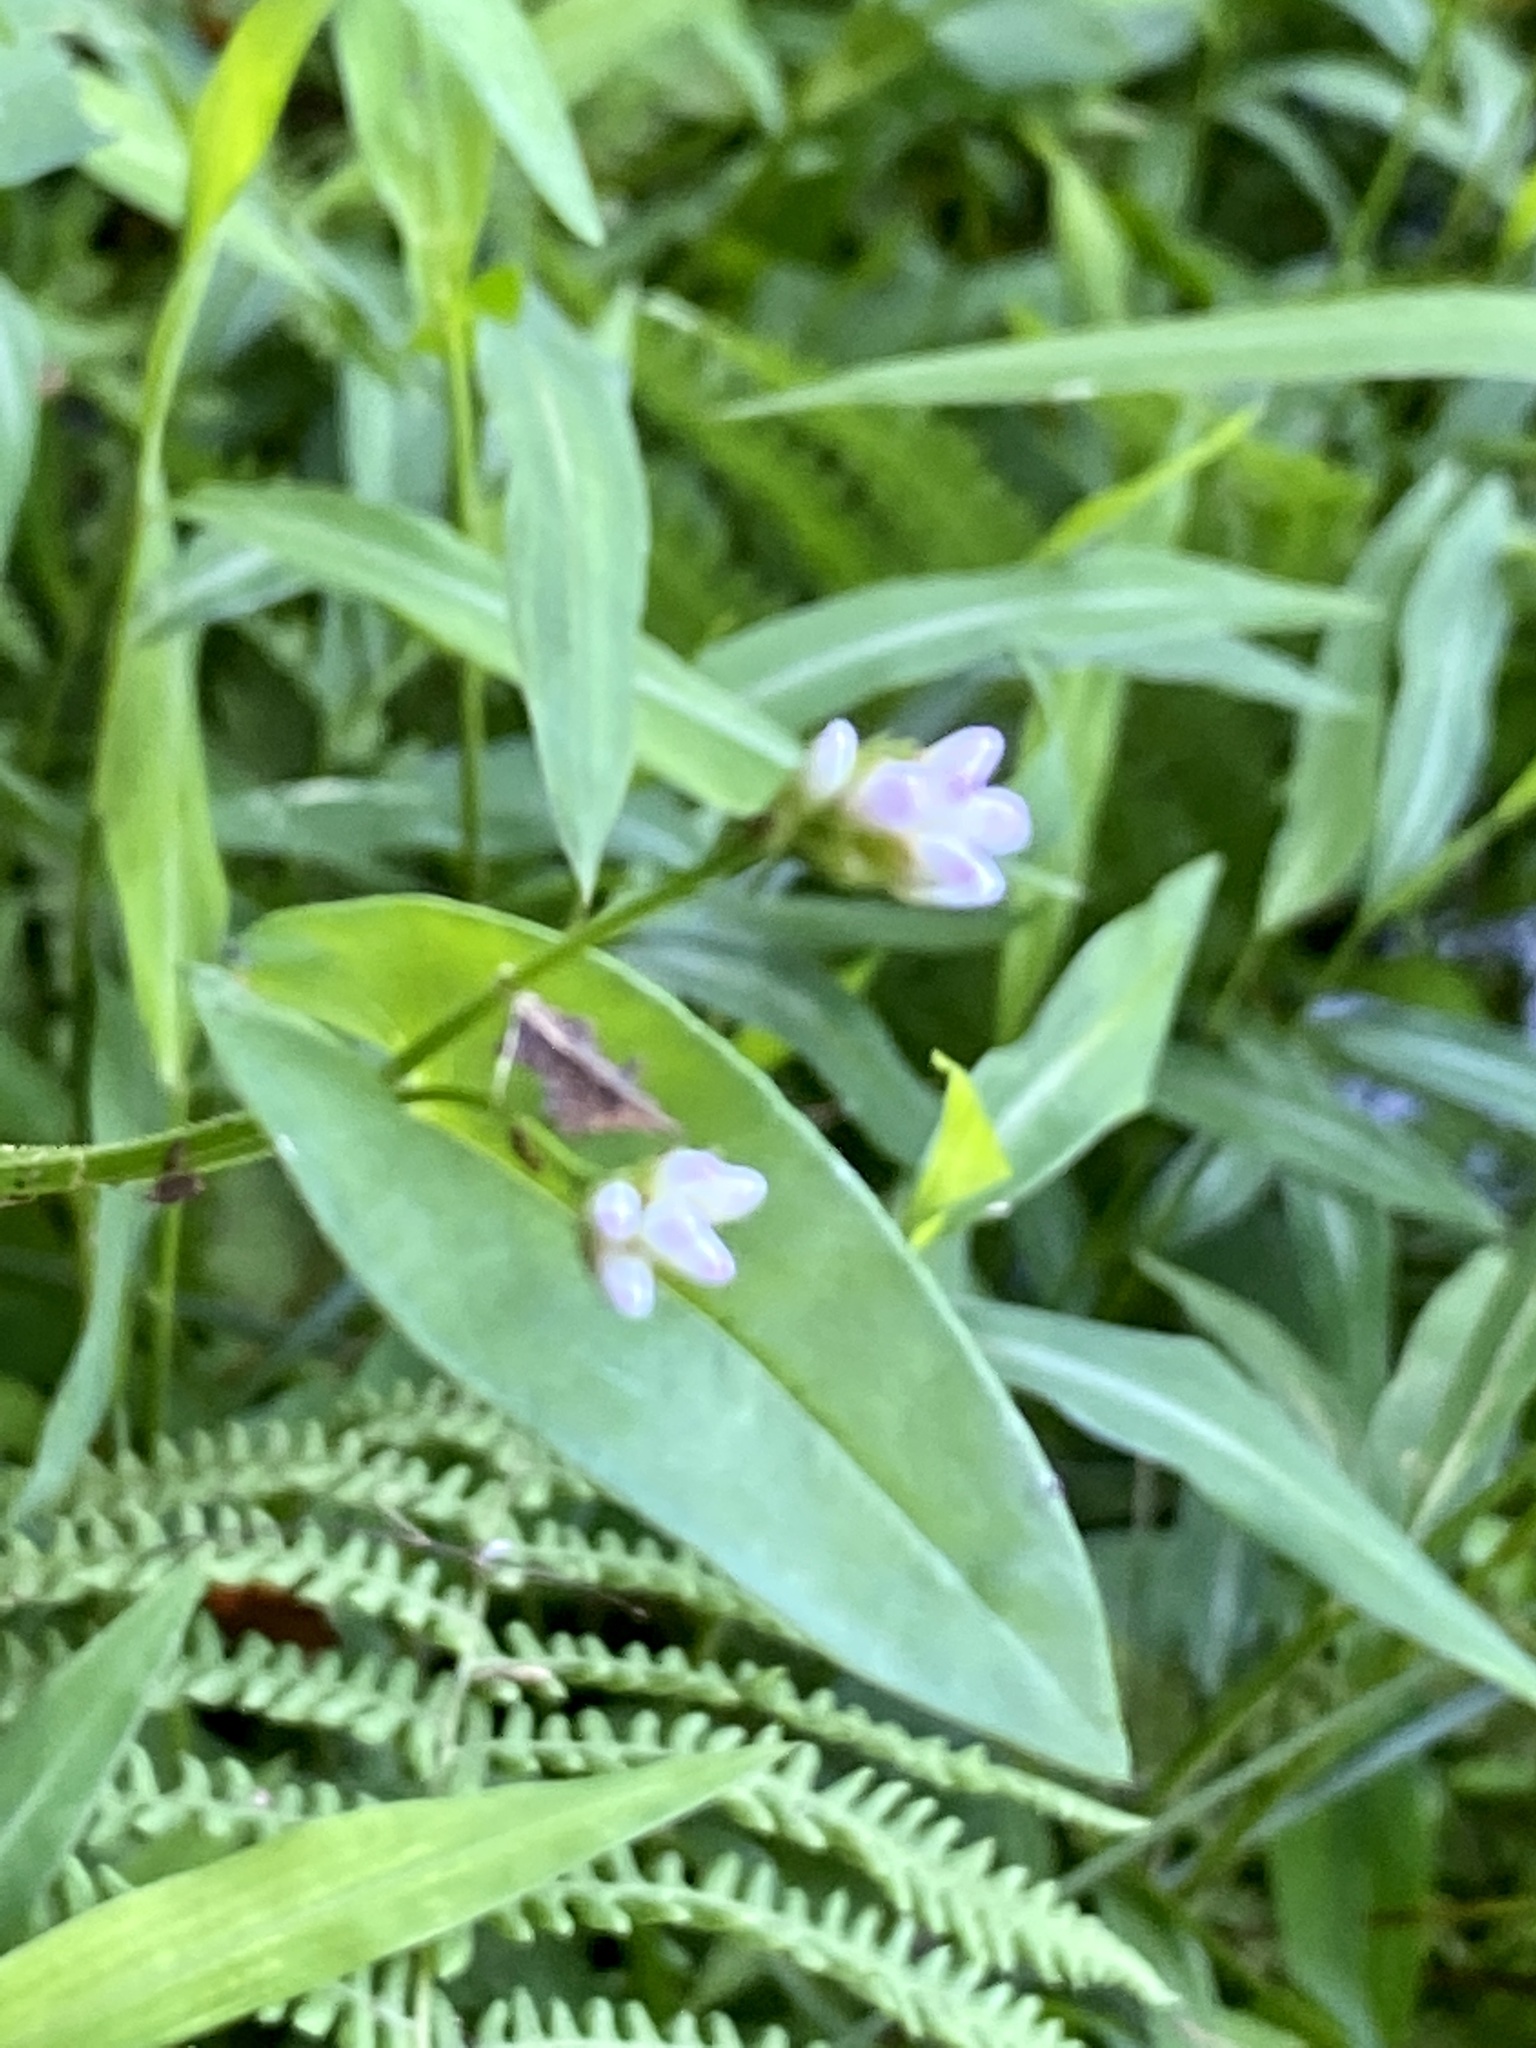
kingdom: Plantae
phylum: Tracheophyta
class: Magnoliopsida
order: Caryophyllales
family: Polygonaceae
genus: Persicaria
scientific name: Persicaria sagittata
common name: American tearthumb
